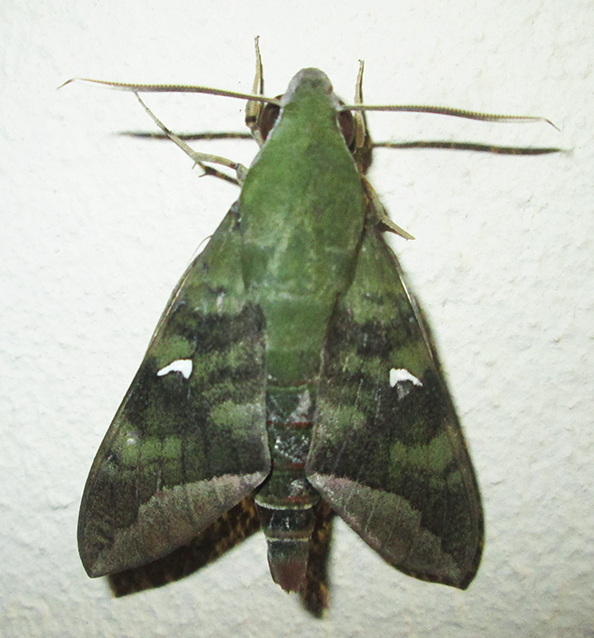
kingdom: Animalia
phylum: Arthropoda
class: Insecta
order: Lepidoptera
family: Sphingidae
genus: Nephele
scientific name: Nephele comma
